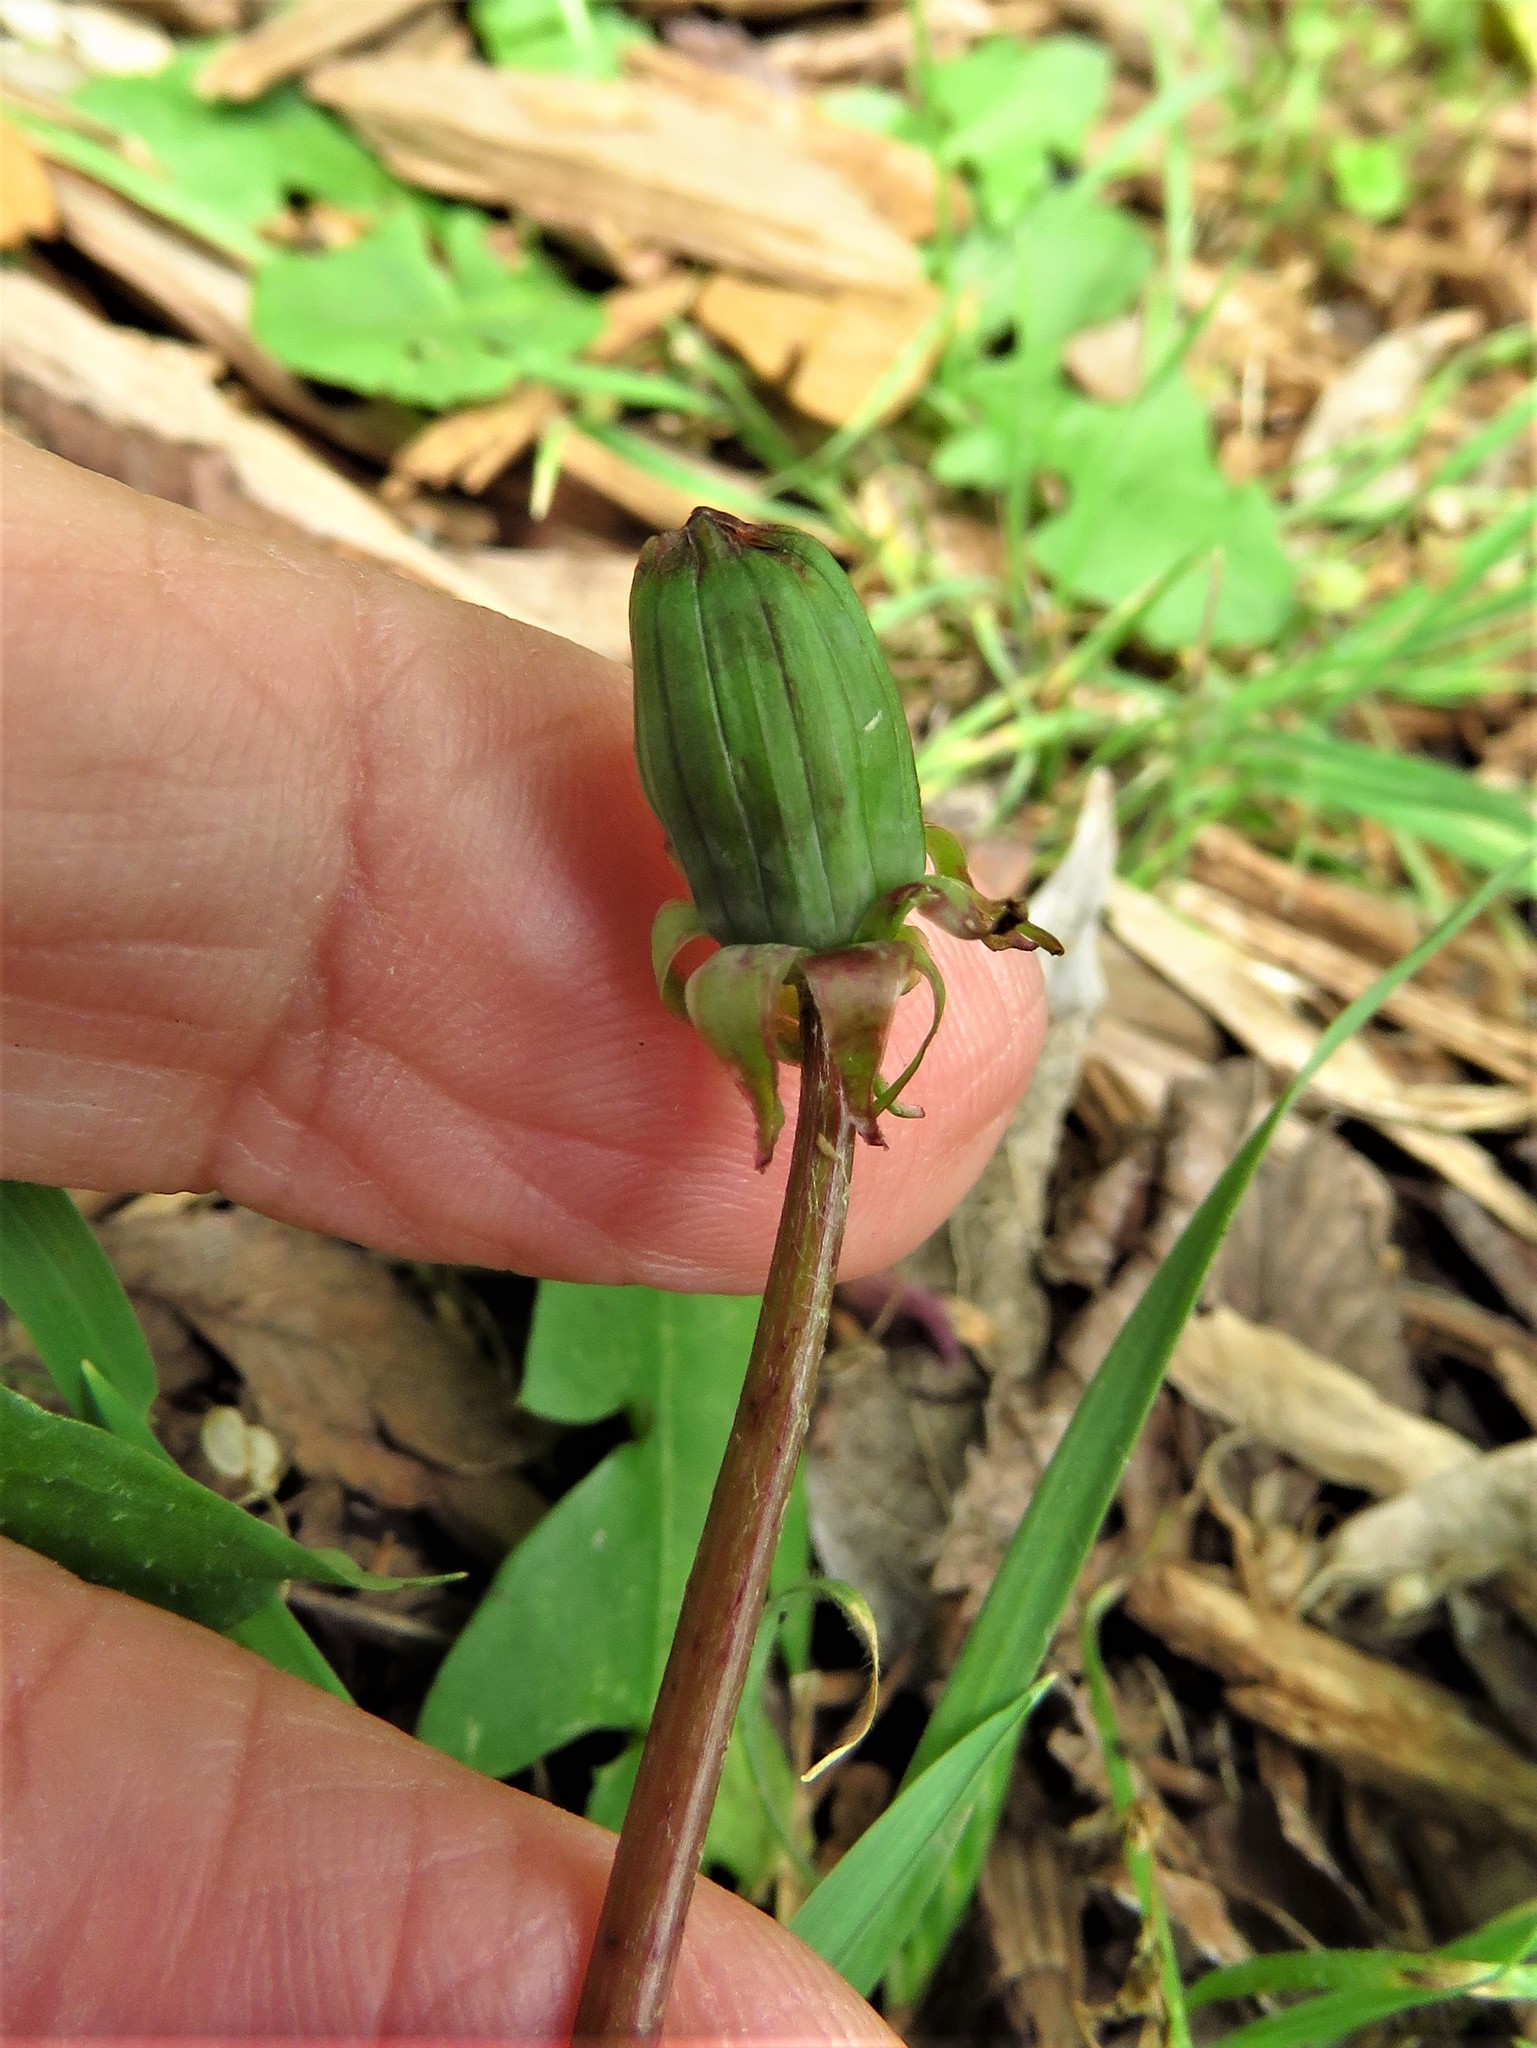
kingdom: Plantae
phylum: Tracheophyta
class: Magnoliopsida
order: Asterales
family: Asteraceae
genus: Taraxacum
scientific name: Taraxacum officinale
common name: Common dandelion
